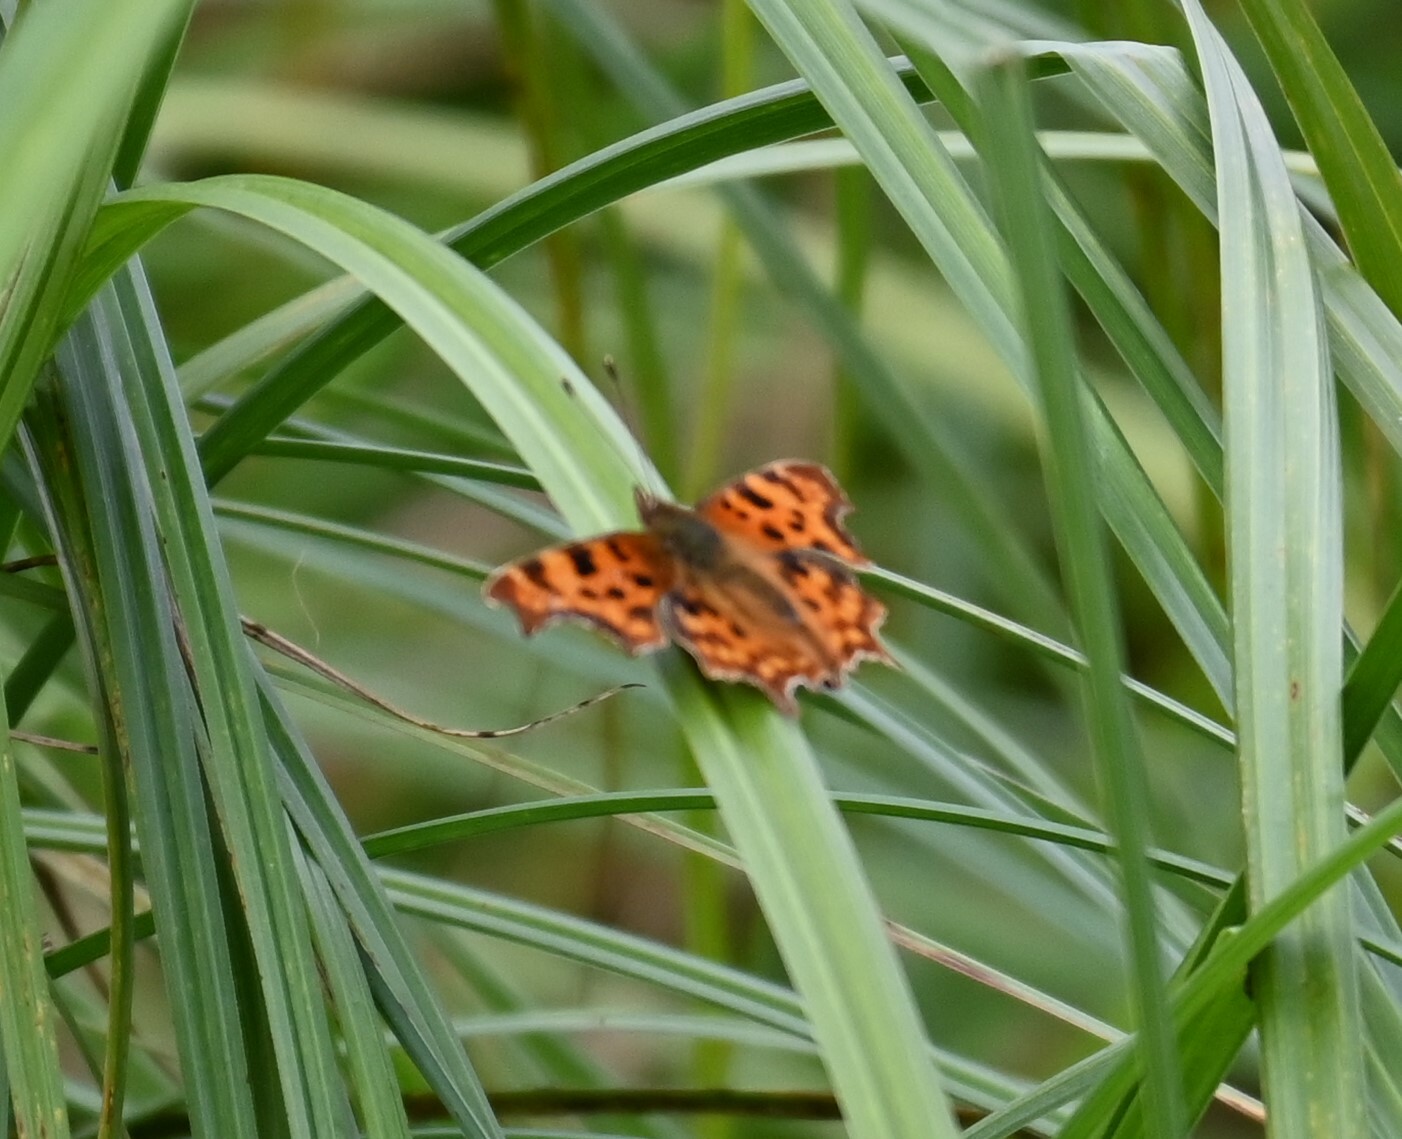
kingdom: Animalia
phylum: Arthropoda
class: Insecta
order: Lepidoptera
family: Nymphalidae
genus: Polygonia
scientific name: Polygonia c-album
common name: Comma
